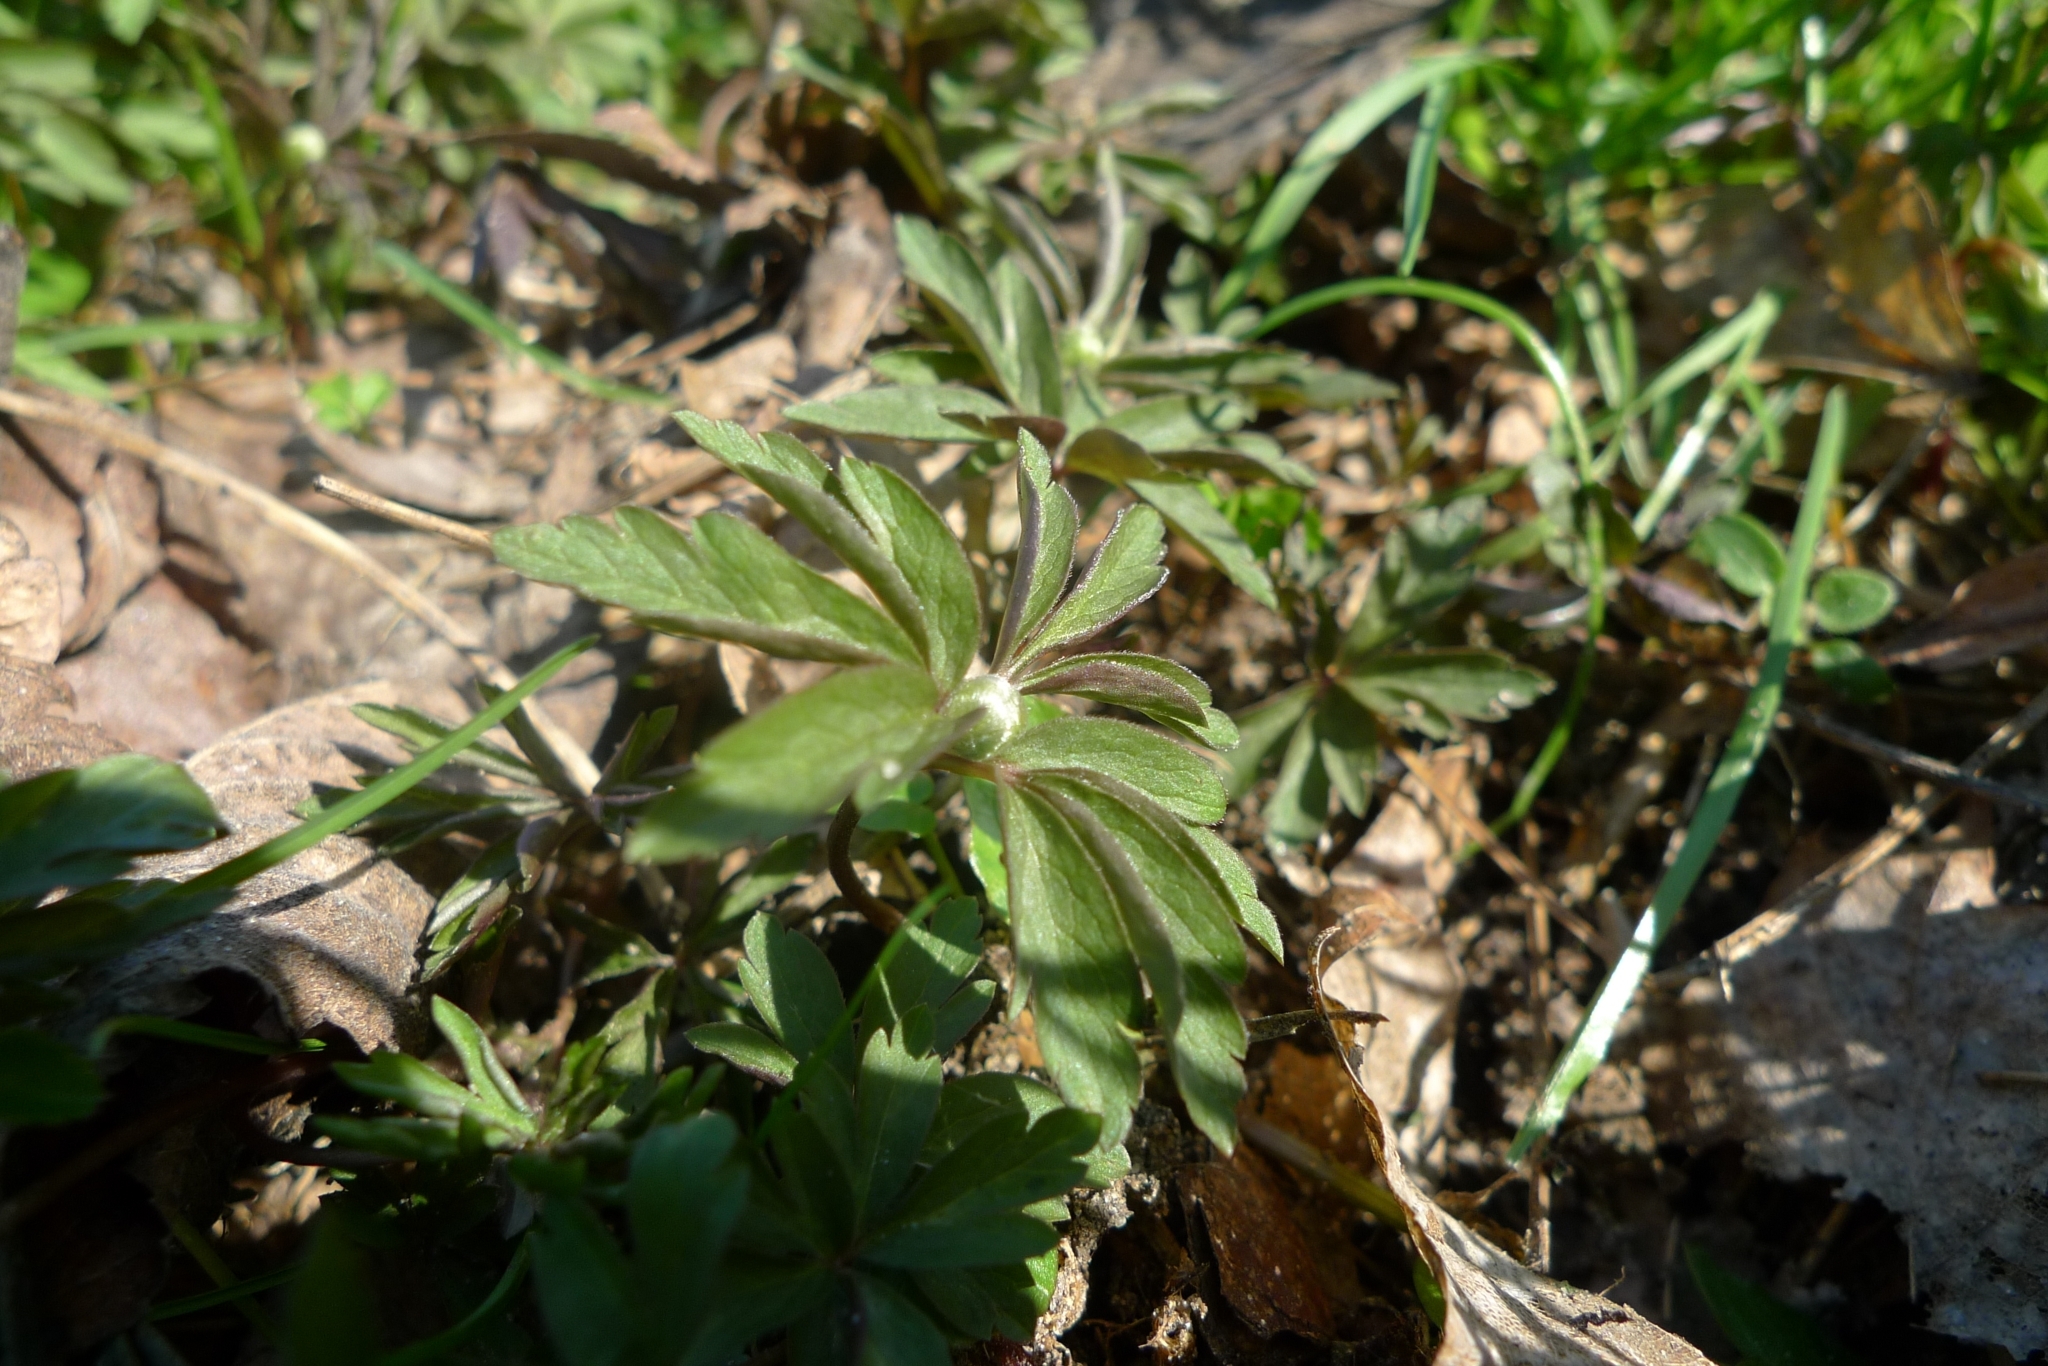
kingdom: Plantae
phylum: Tracheophyta
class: Magnoliopsida
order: Ranunculales
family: Ranunculaceae
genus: Anemone
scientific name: Anemone ranunculoides
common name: Yellow anemone
